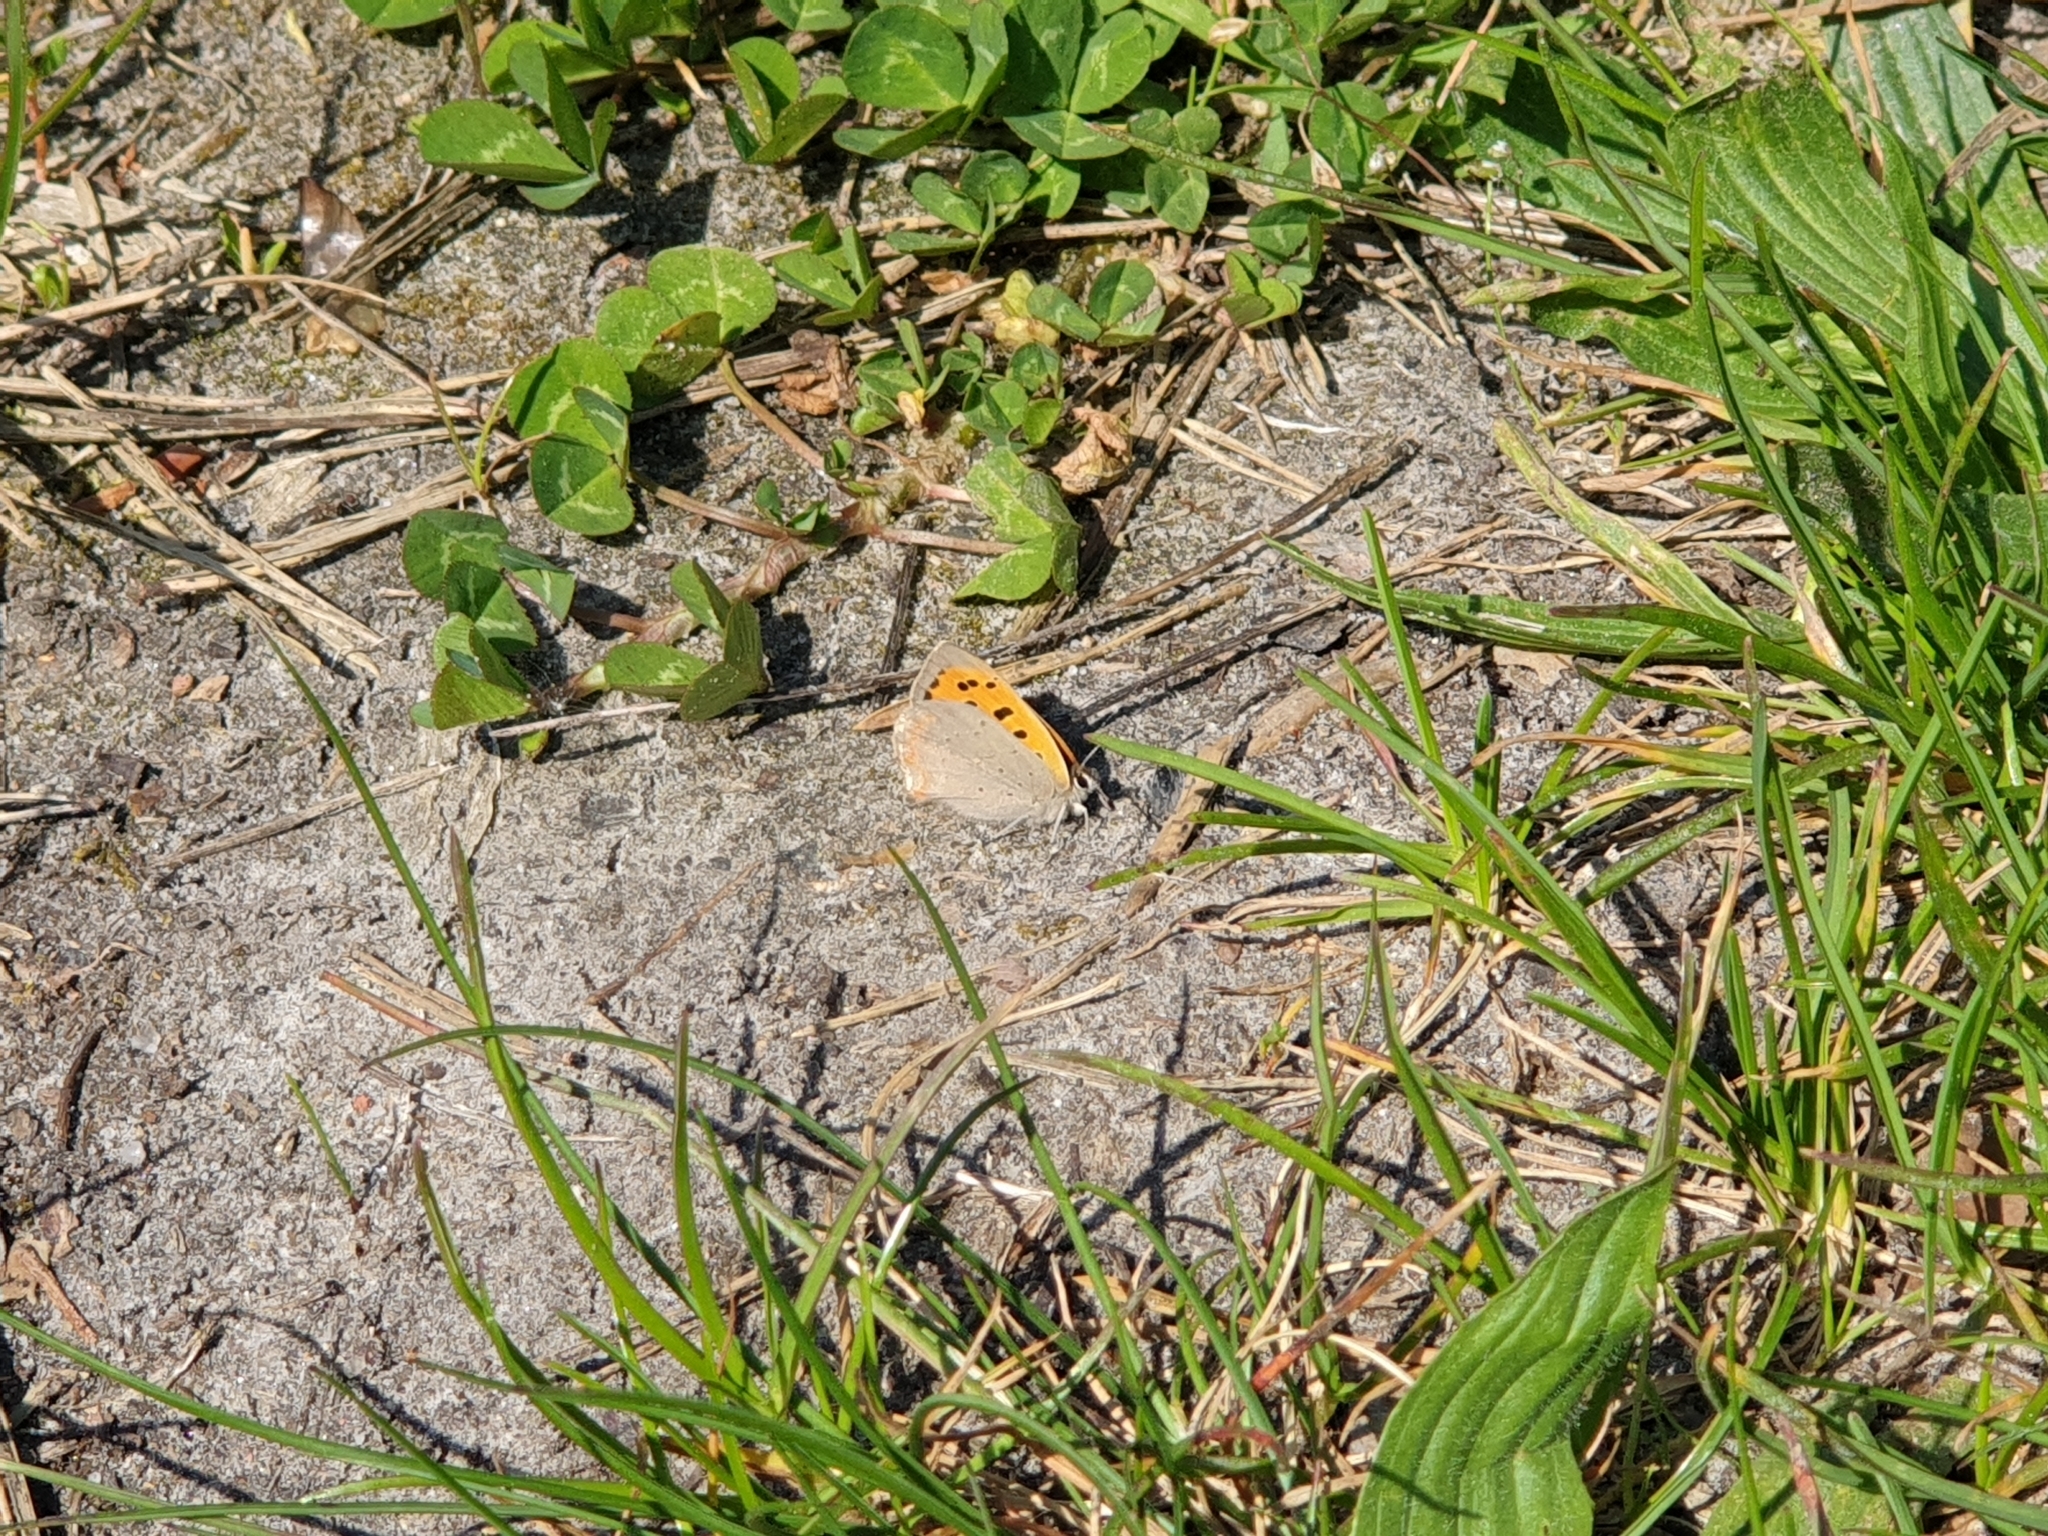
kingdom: Animalia
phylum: Arthropoda
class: Insecta
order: Lepidoptera
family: Lycaenidae
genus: Lycaena
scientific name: Lycaena phlaeas
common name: Small copper
